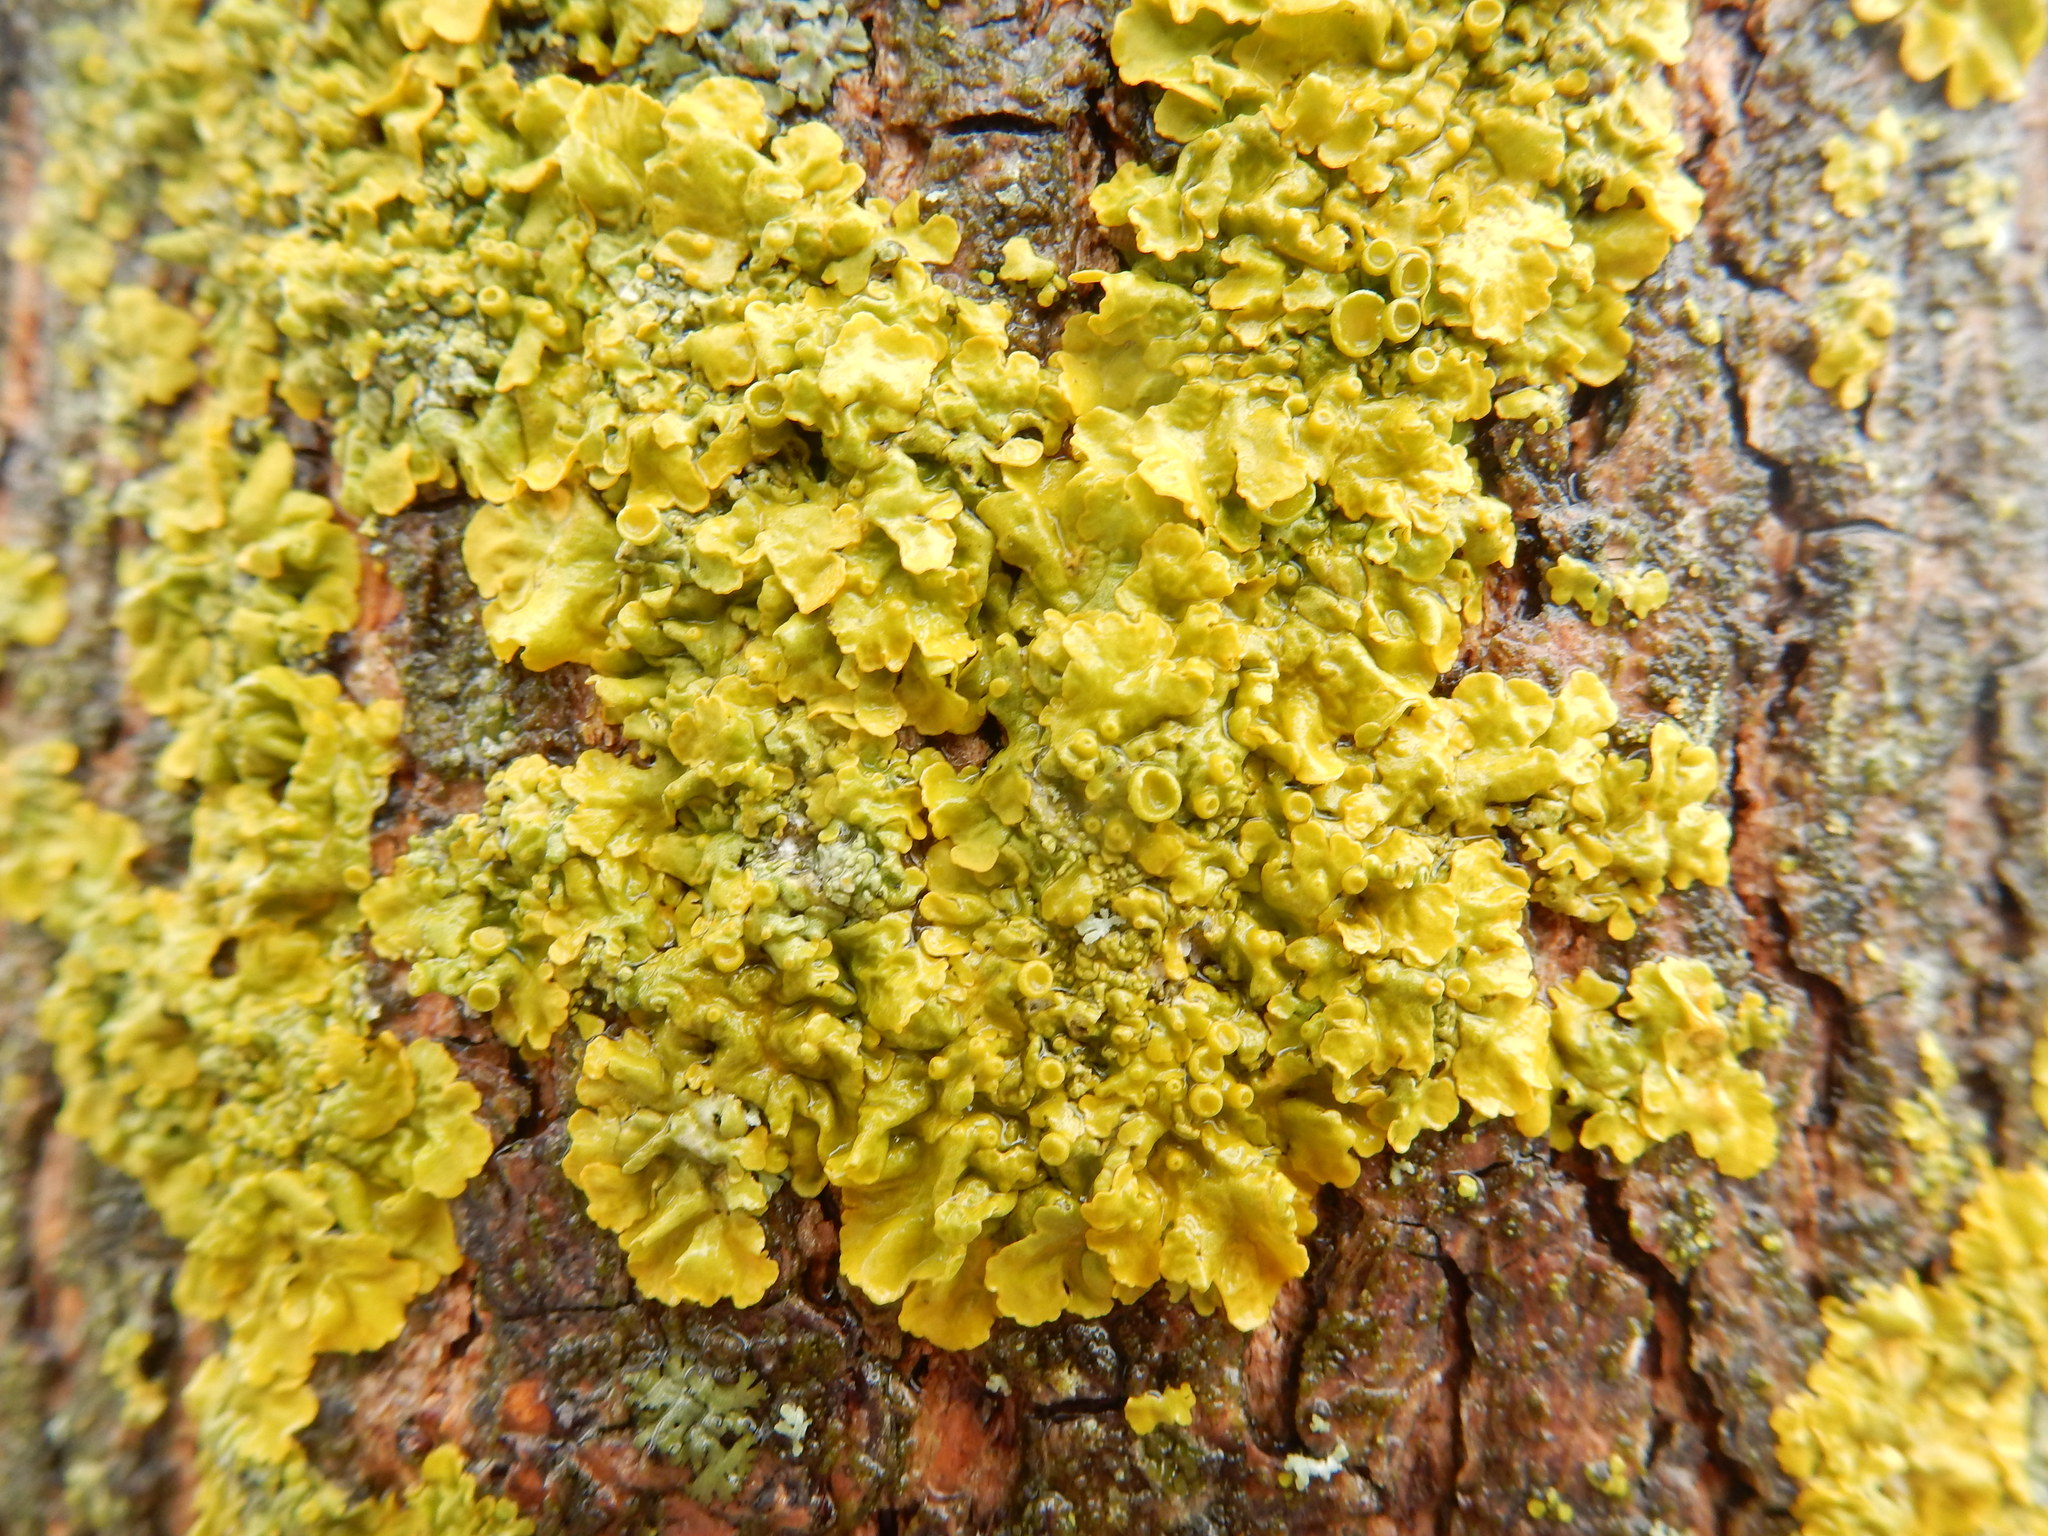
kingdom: Fungi
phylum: Ascomycota
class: Lecanoromycetes
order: Teloschistales
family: Teloschistaceae
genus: Xanthoria
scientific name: Xanthoria parietina
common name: Common orange lichen
